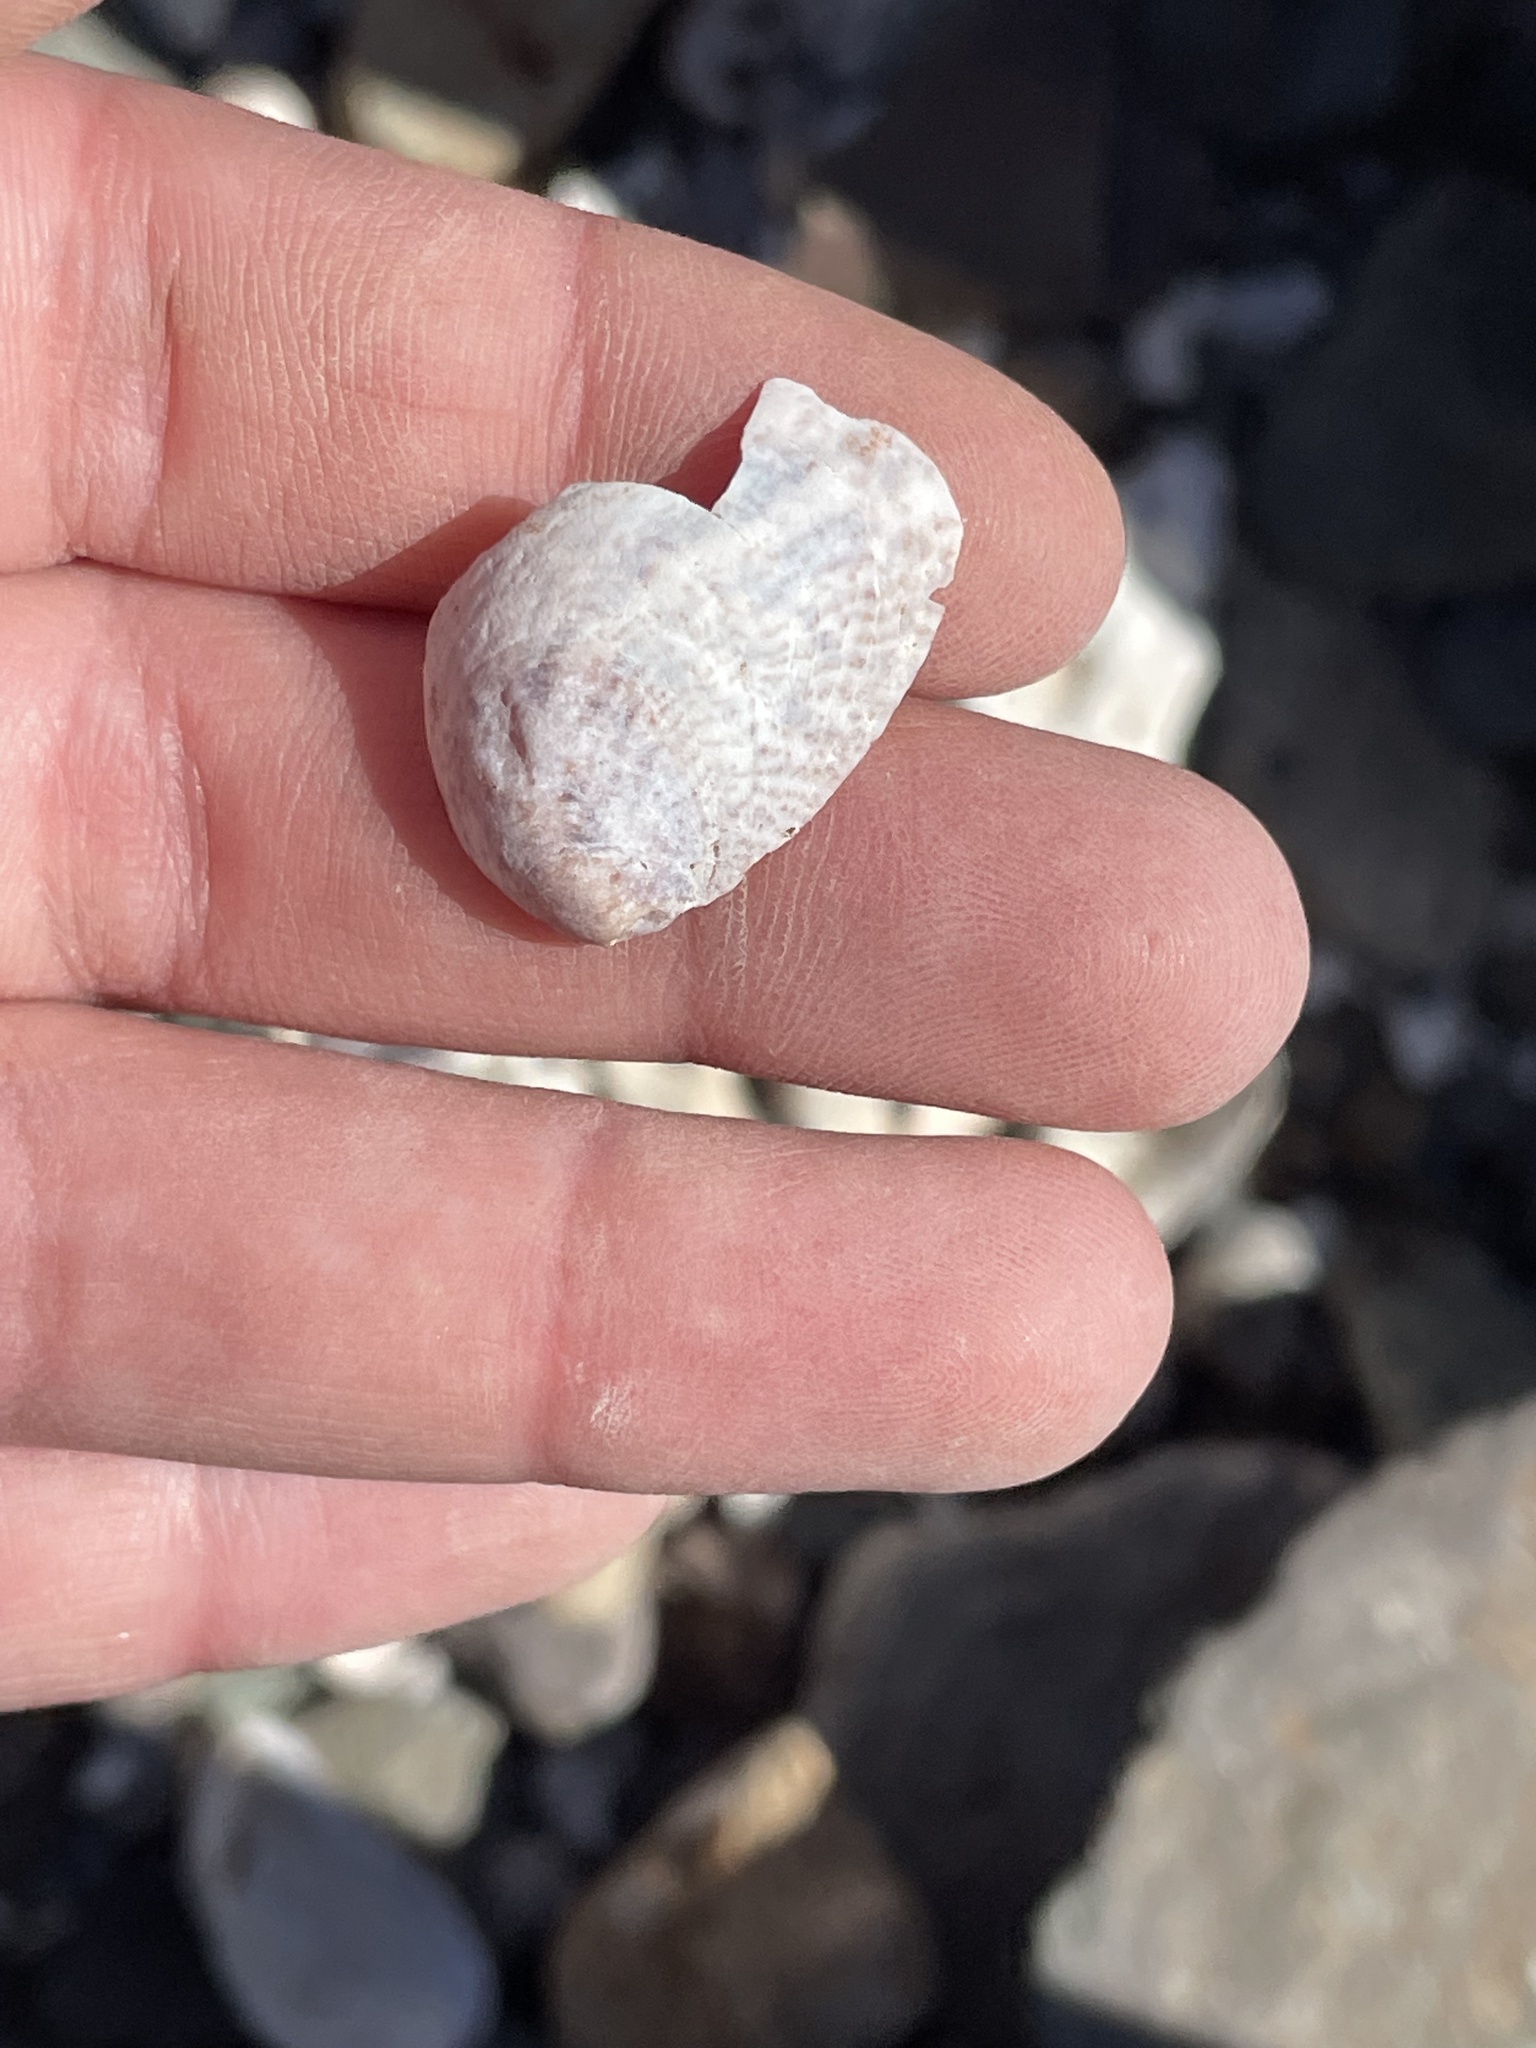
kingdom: Animalia
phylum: Mollusca
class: Gastropoda
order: Littorinimorpha
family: Calyptraeidae
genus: Crepidula
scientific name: Crepidula fornicata
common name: Slipper limpet
